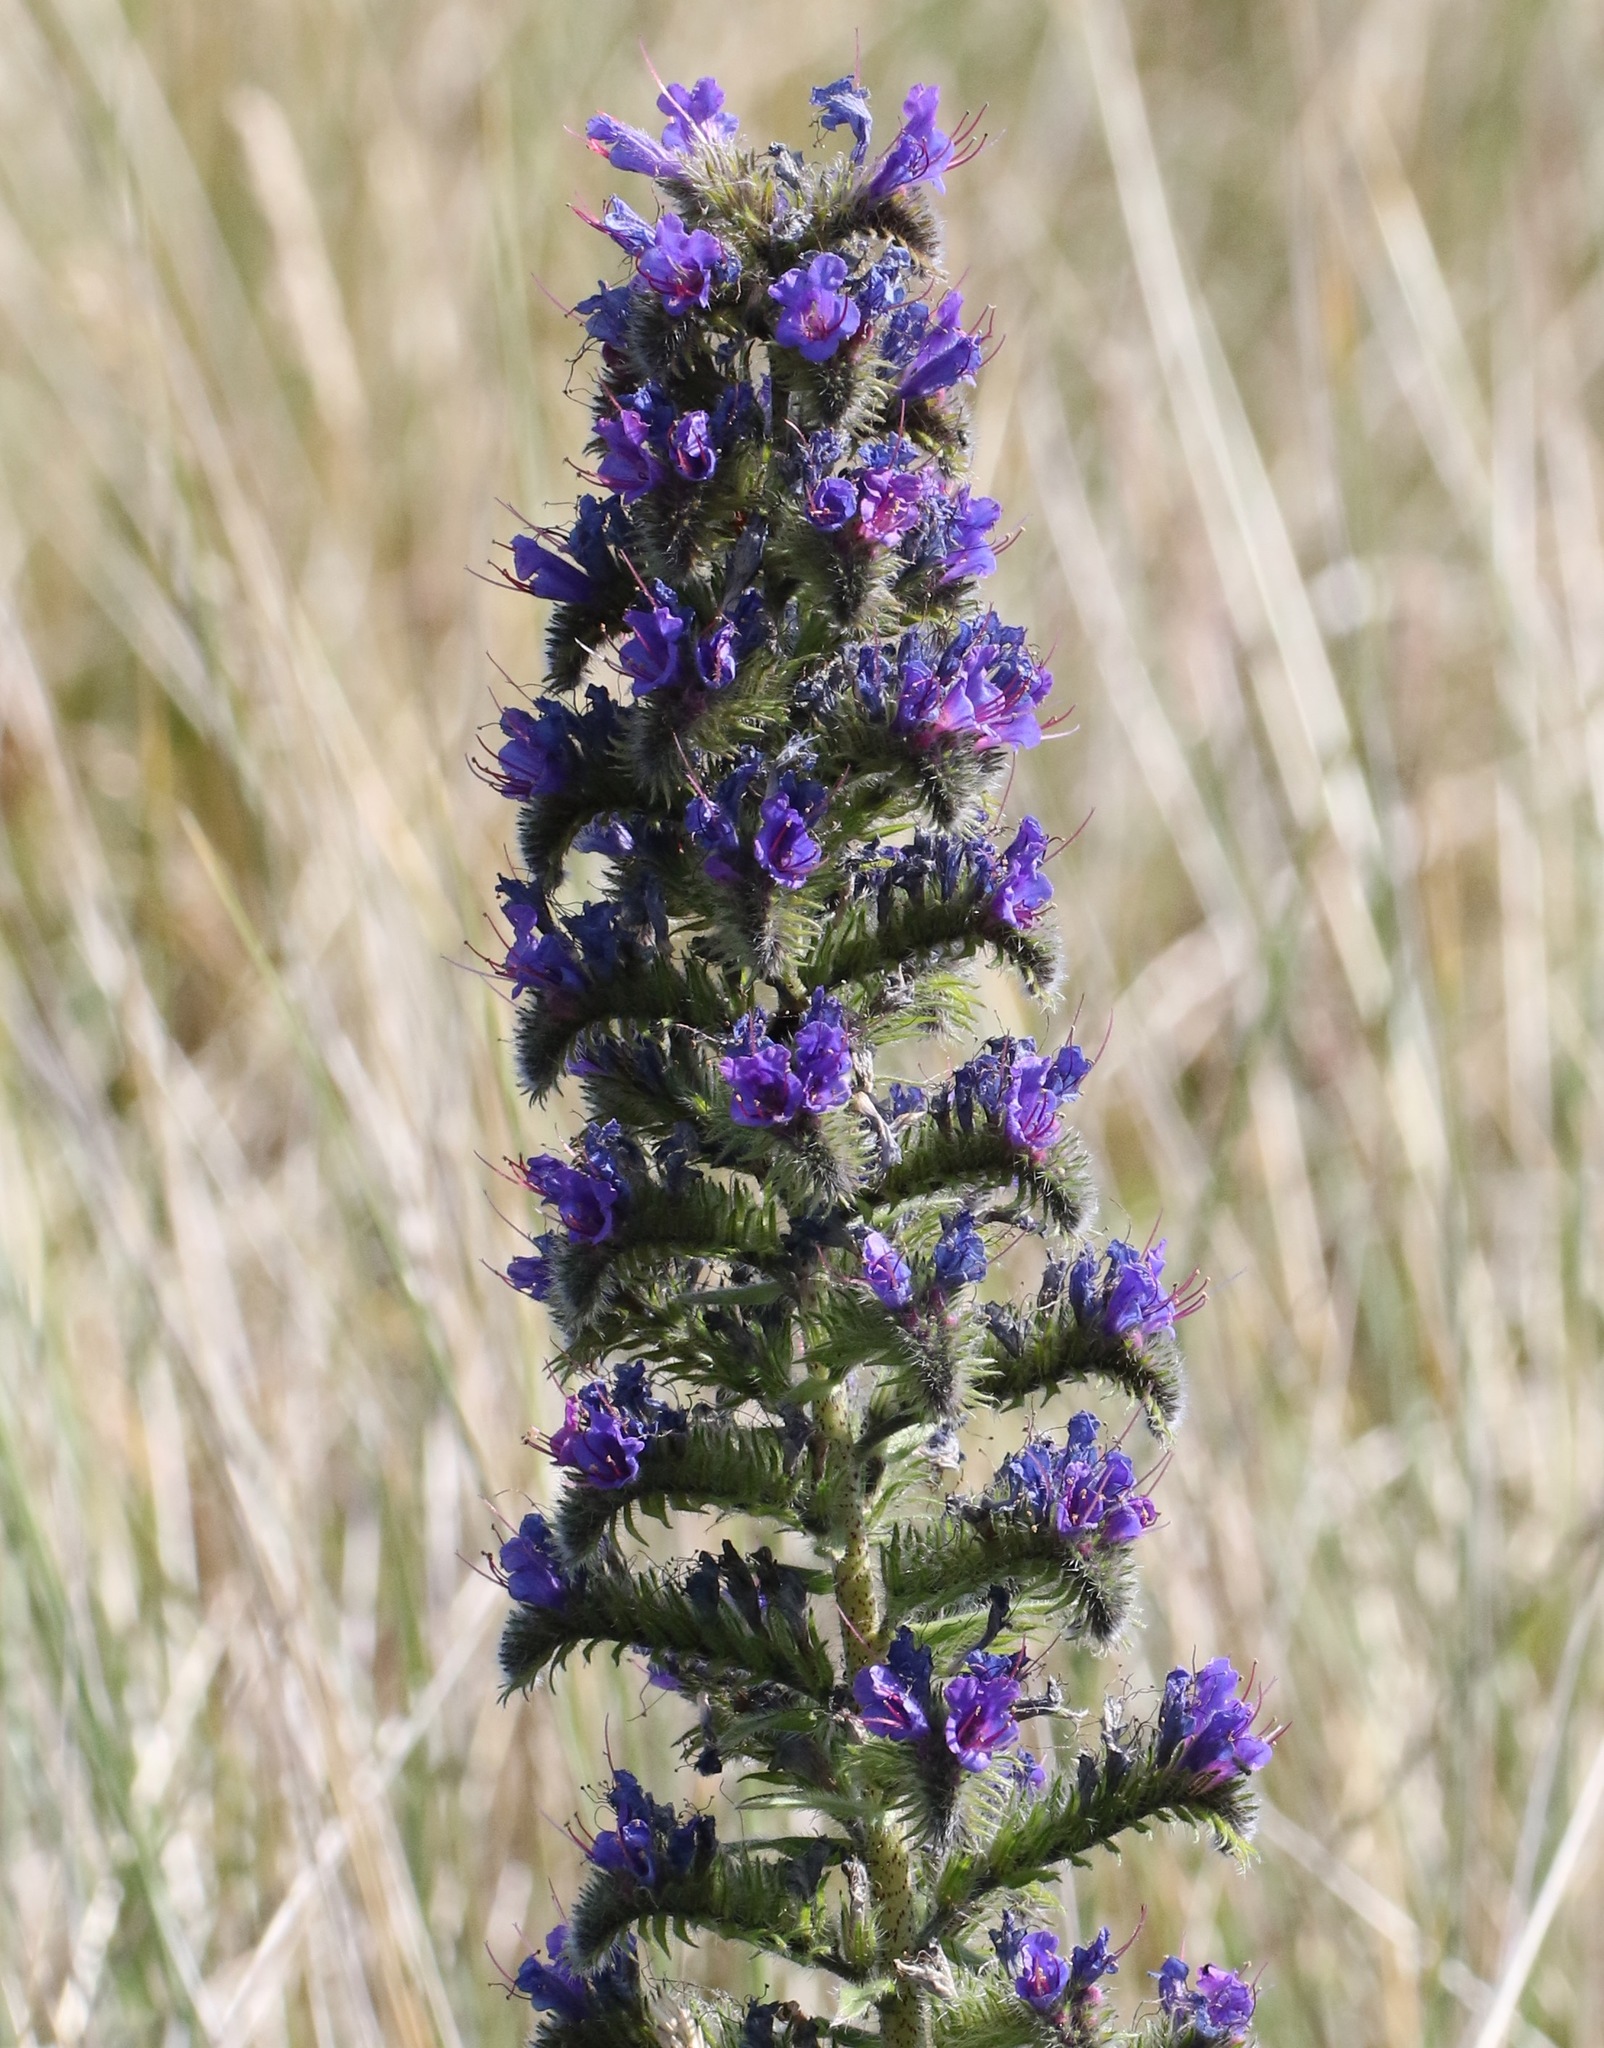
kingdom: Plantae
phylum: Tracheophyta
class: Magnoliopsida
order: Boraginales
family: Boraginaceae
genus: Echium
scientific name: Echium vulgare
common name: Common viper's bugloss
